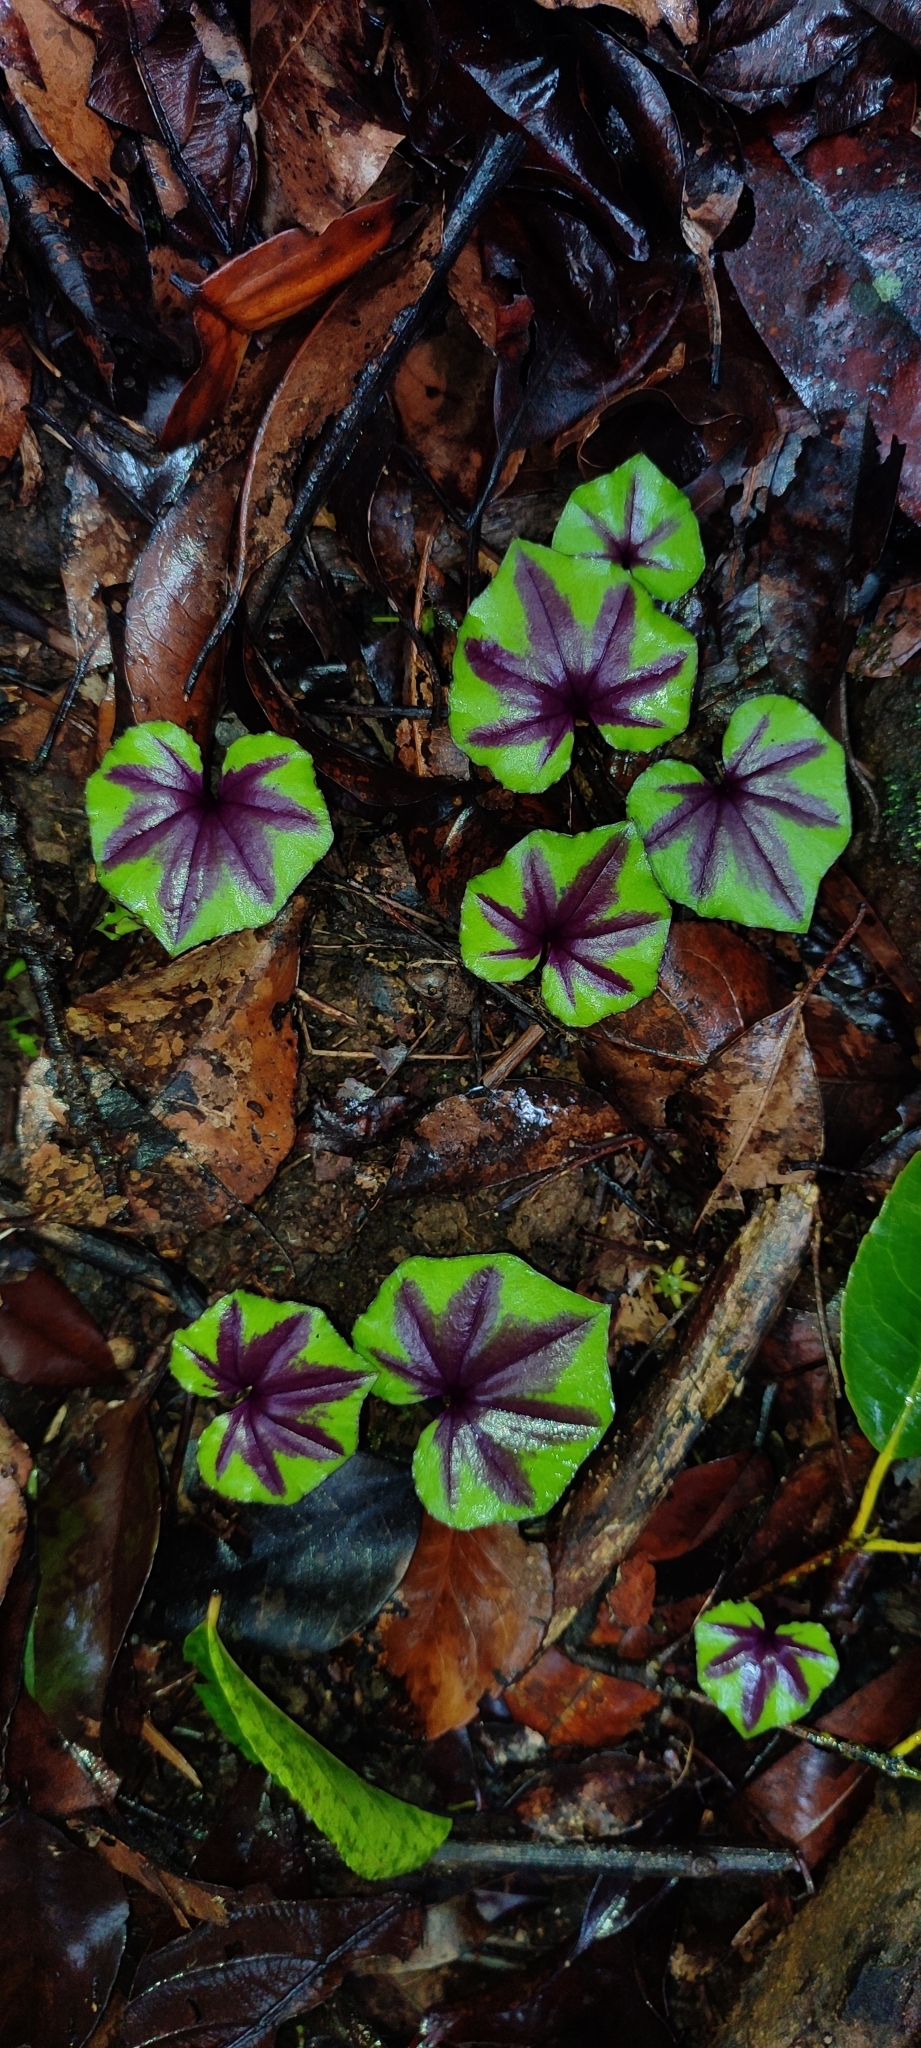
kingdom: Plantae
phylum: Tracheophyta
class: Liliopsida
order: Asparagales
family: Orchidaceae
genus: Nervilia
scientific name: Nervilia infundibulifolia
